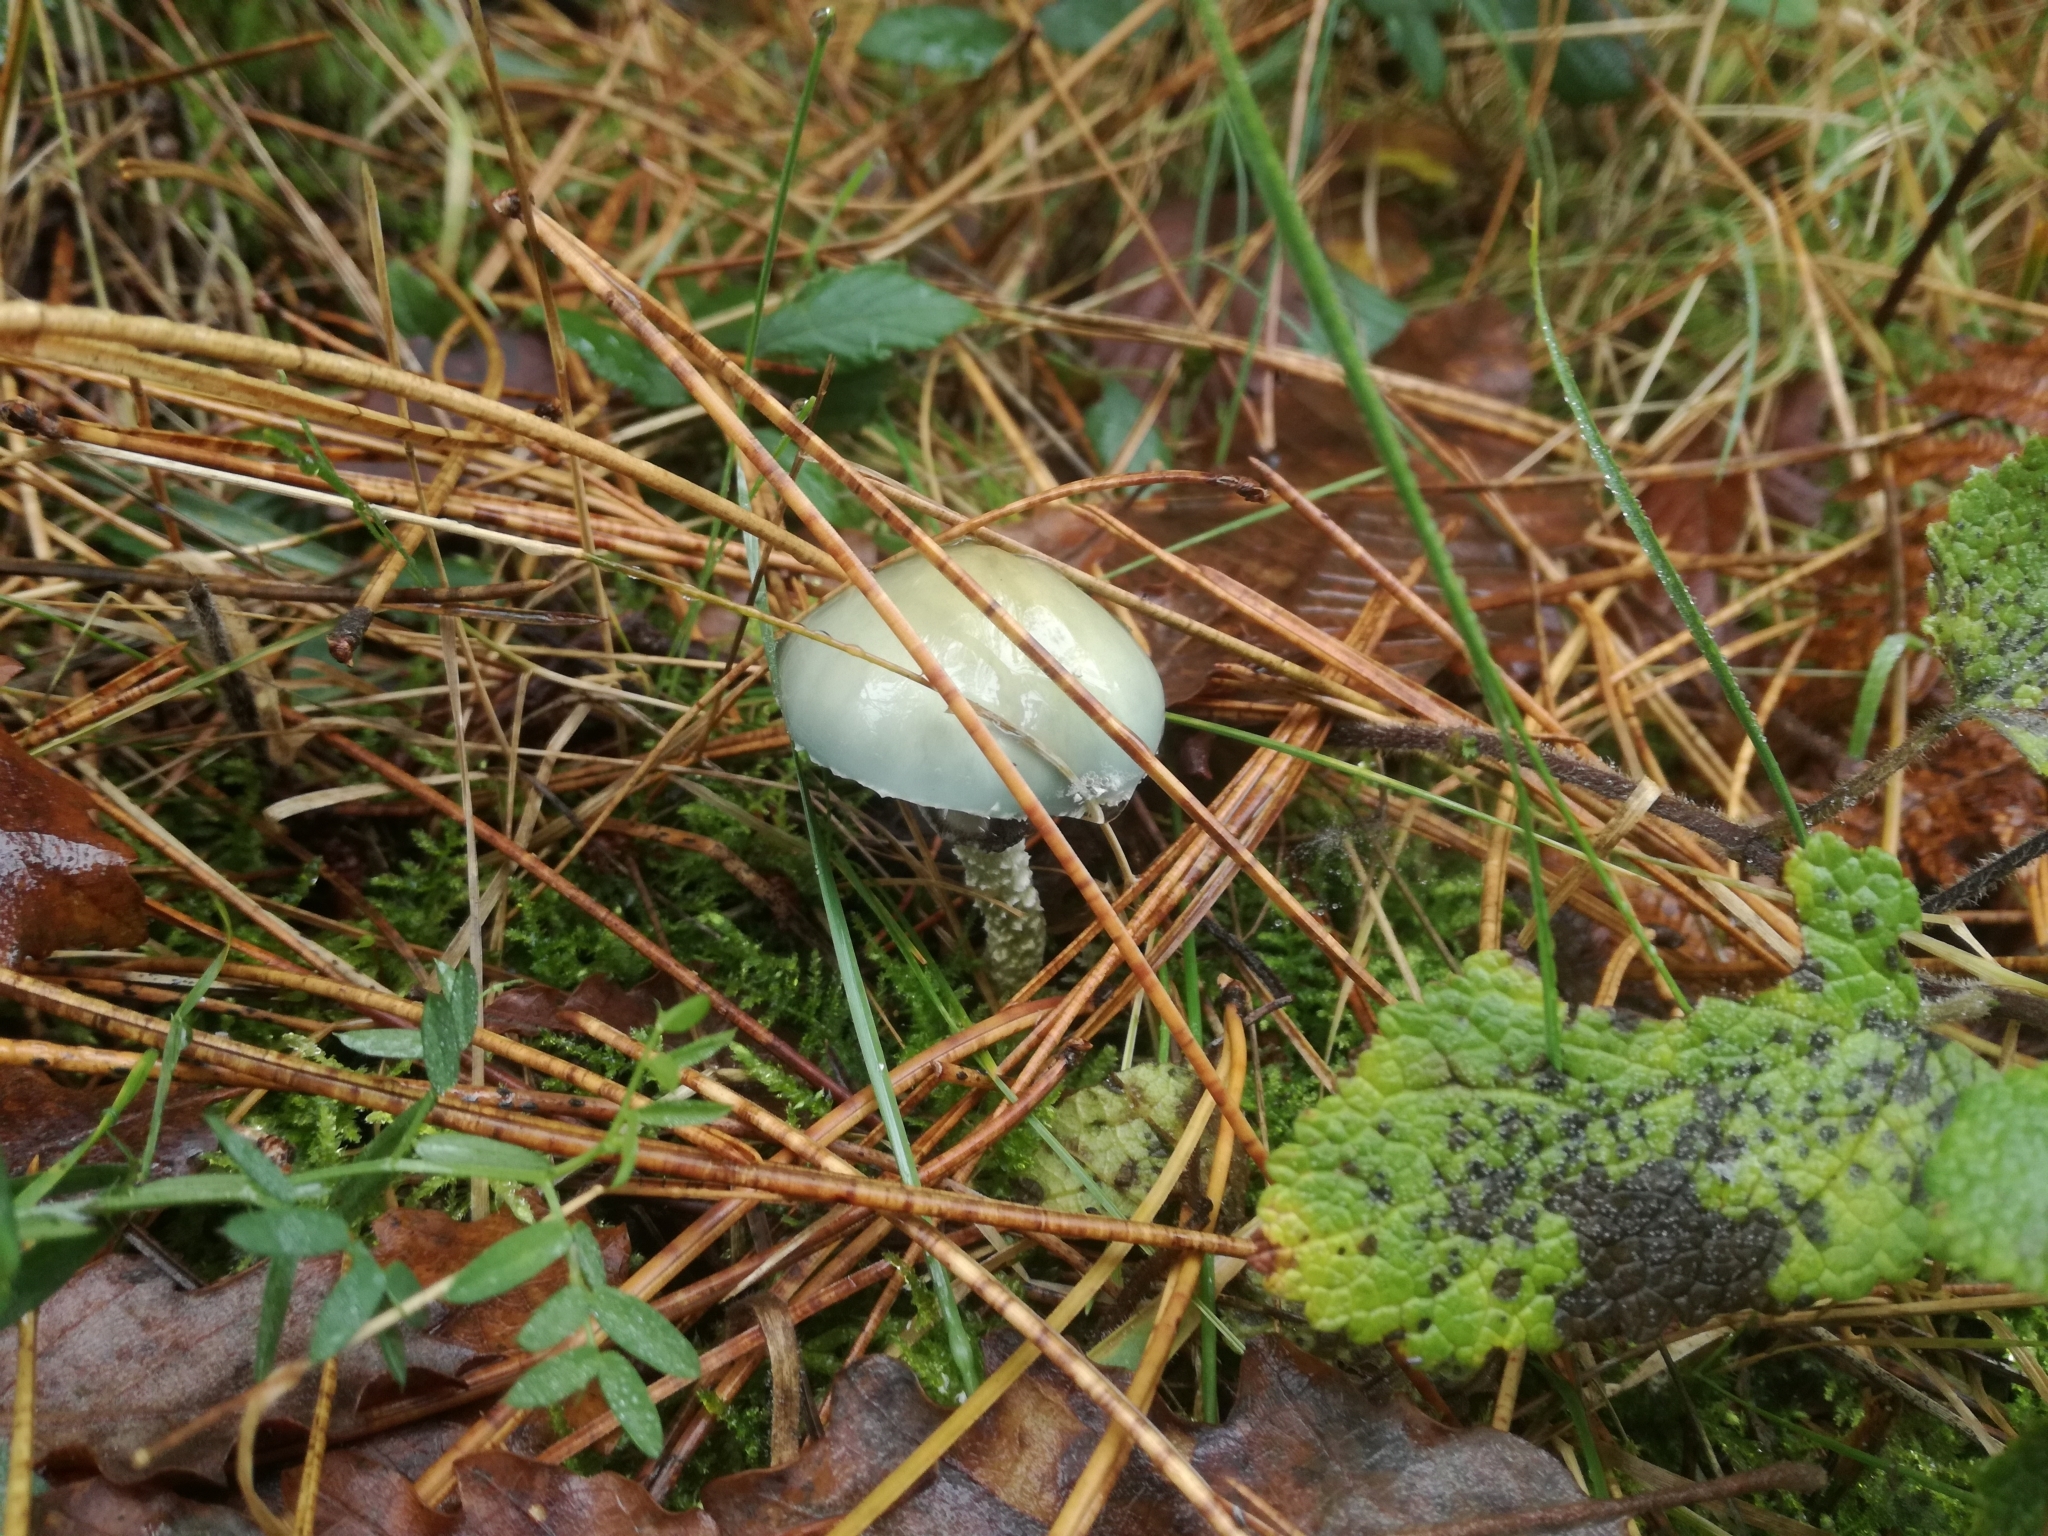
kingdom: Fungi
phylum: Basidiomycota
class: Agaricomycetes
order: Agaricales
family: Strophariaceae
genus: Stropharia
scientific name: Stropharia aeruginosa
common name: Verdigris roundhead
